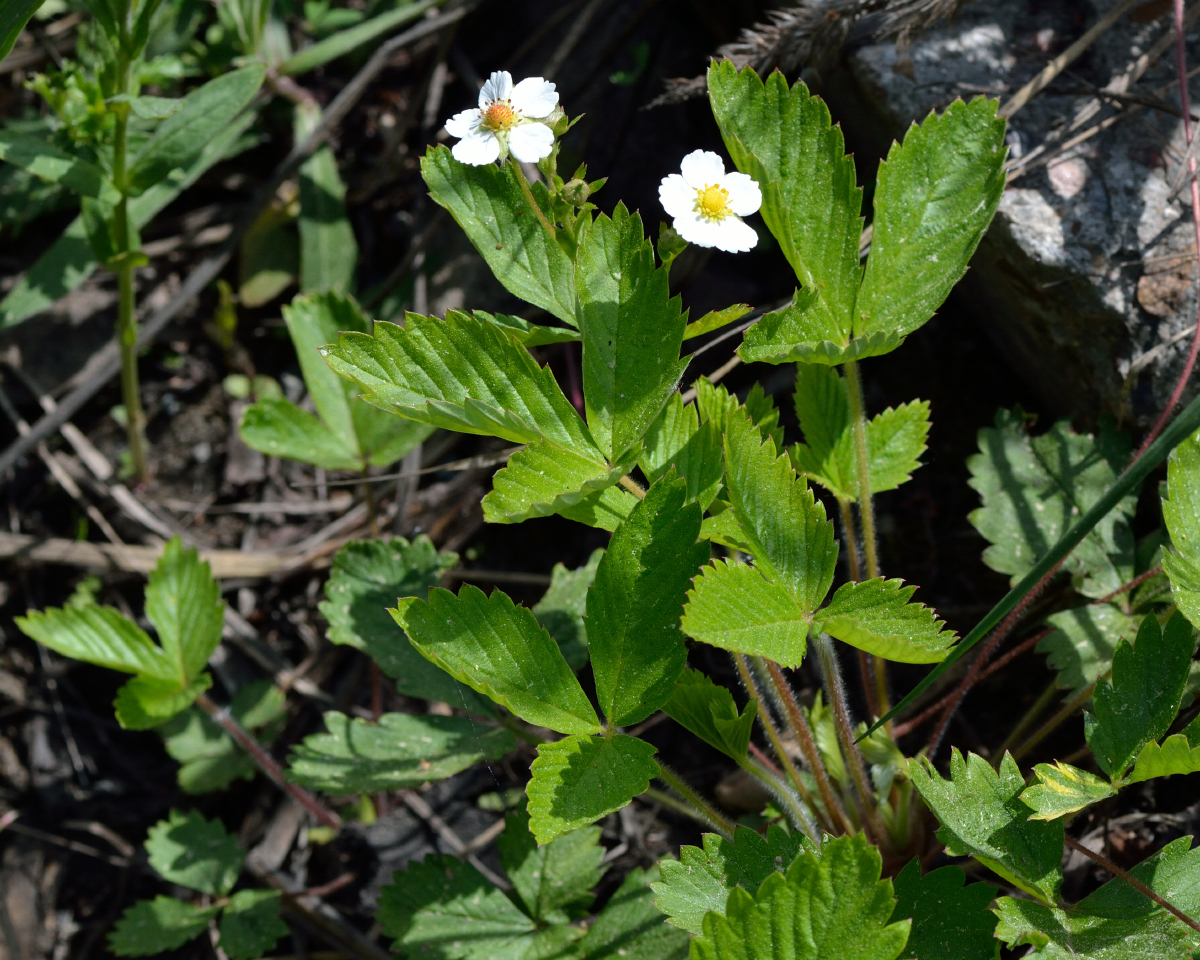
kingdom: Plantae
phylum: Tracheophyta
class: Magnoliopsida
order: Rosales
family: Rosaceae
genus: Fragaria
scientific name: Fragaria vesca
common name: Wild strawberry
